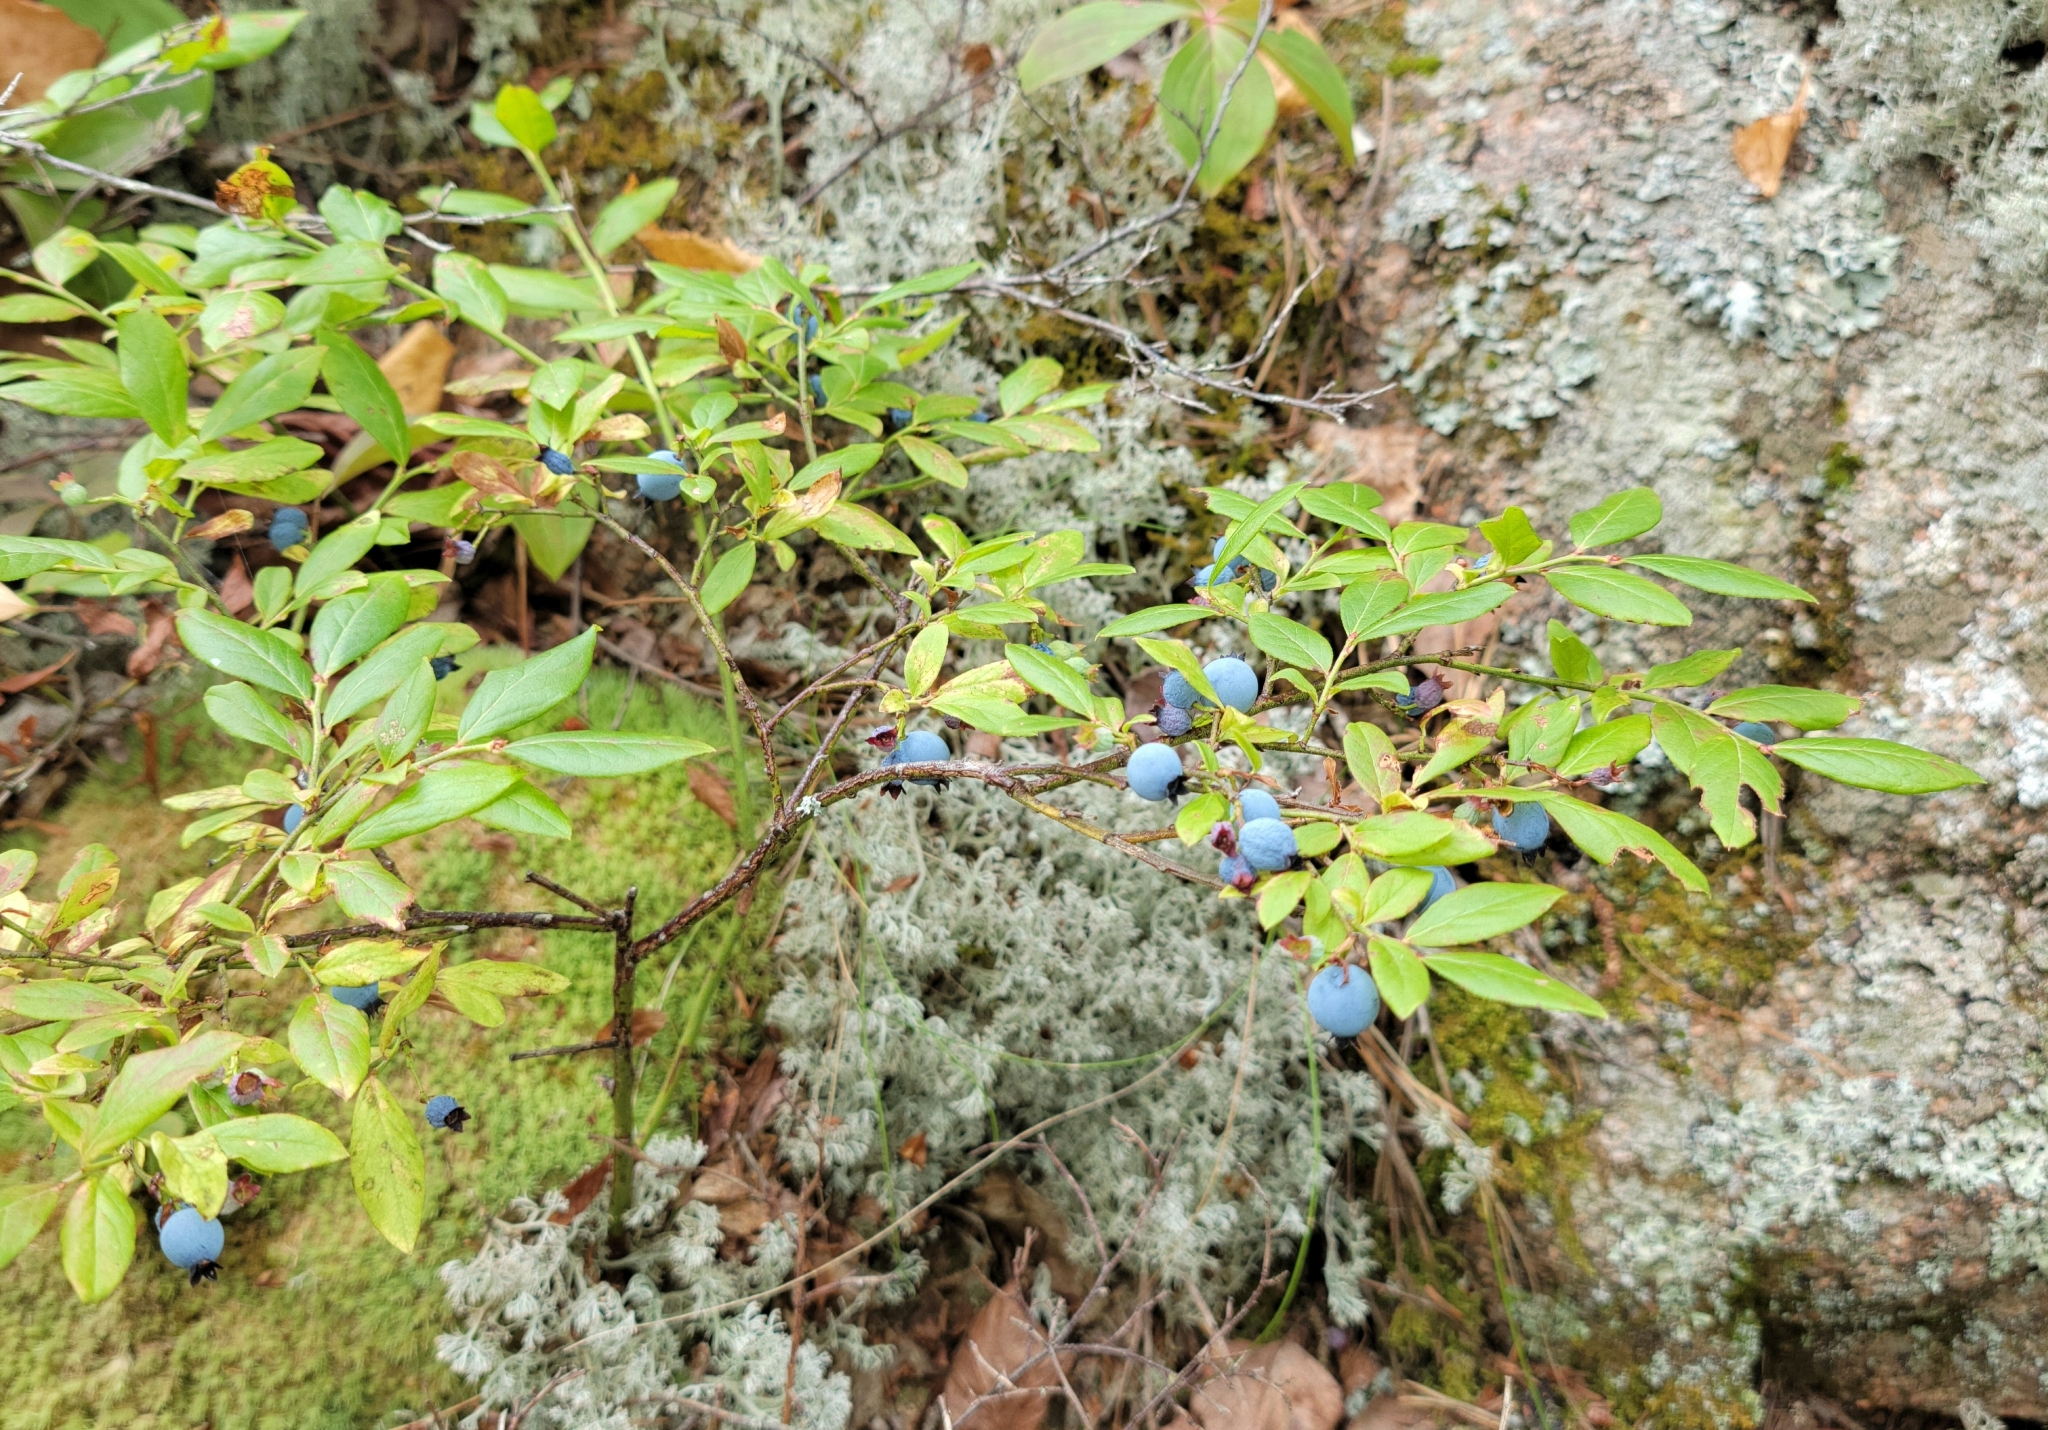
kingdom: Plantae
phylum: Tracheophyta
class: Magnoliopsida
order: Ericales
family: Ericaceae
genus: Vaccinium
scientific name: Vaccinium angustifolium
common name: Early lowbush blueberry
